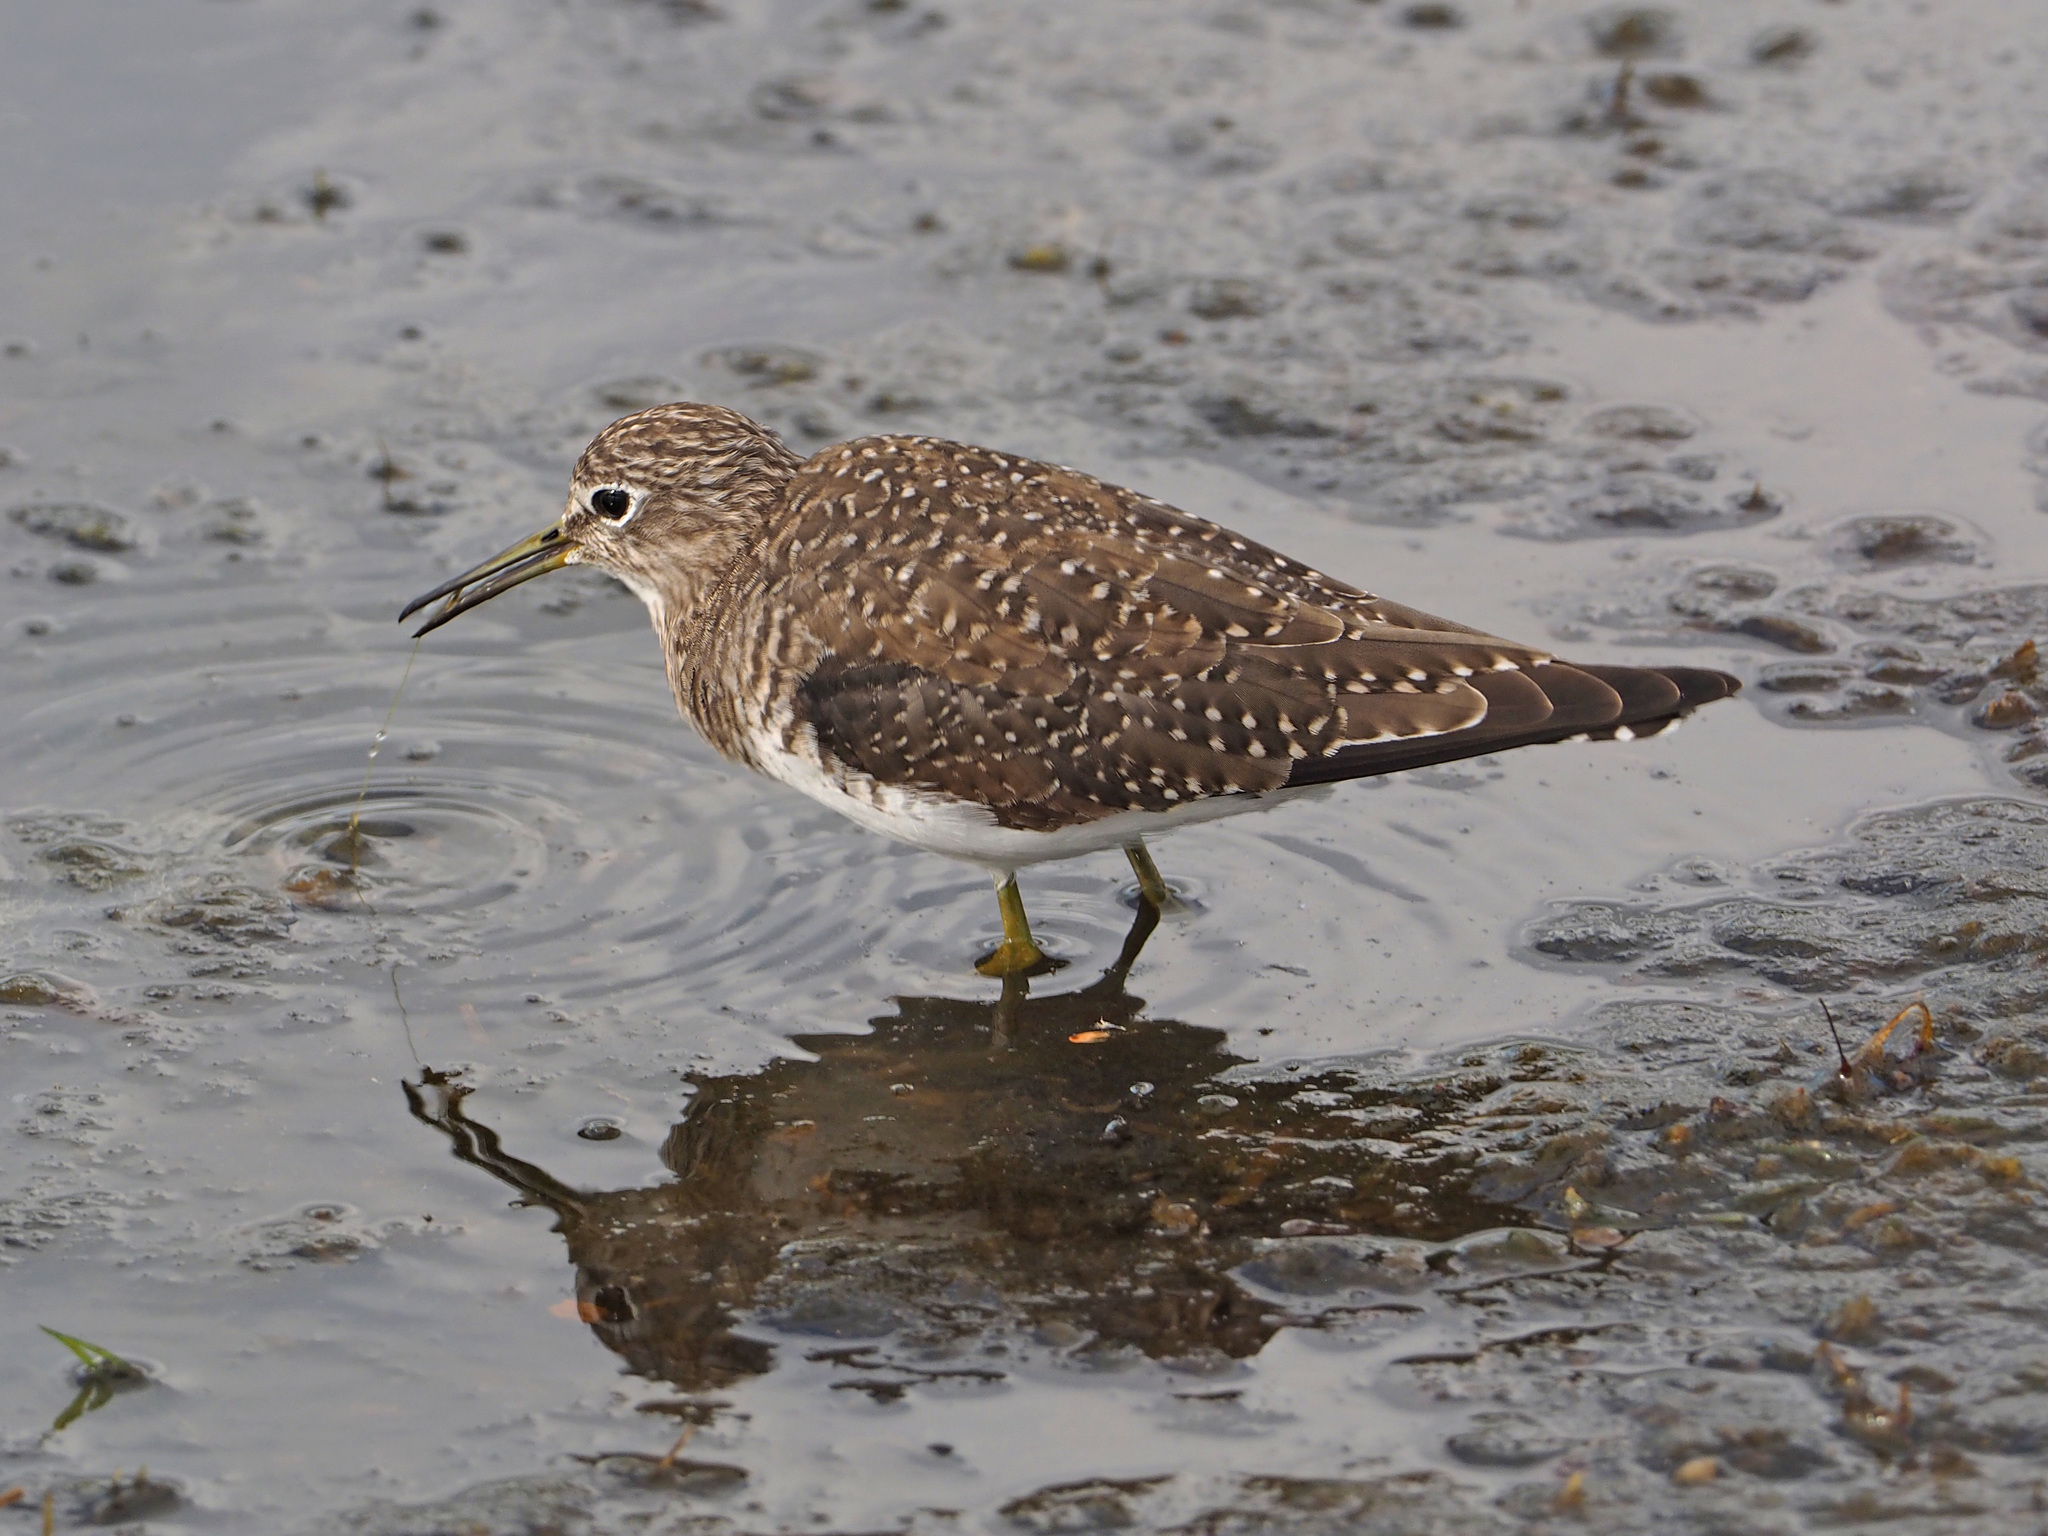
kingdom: Animalia
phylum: Chordata
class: Aves
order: Charadriiformes
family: Scolopacidae
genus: Tringa
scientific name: Tringa solitaria
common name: Solitary sandpiper
